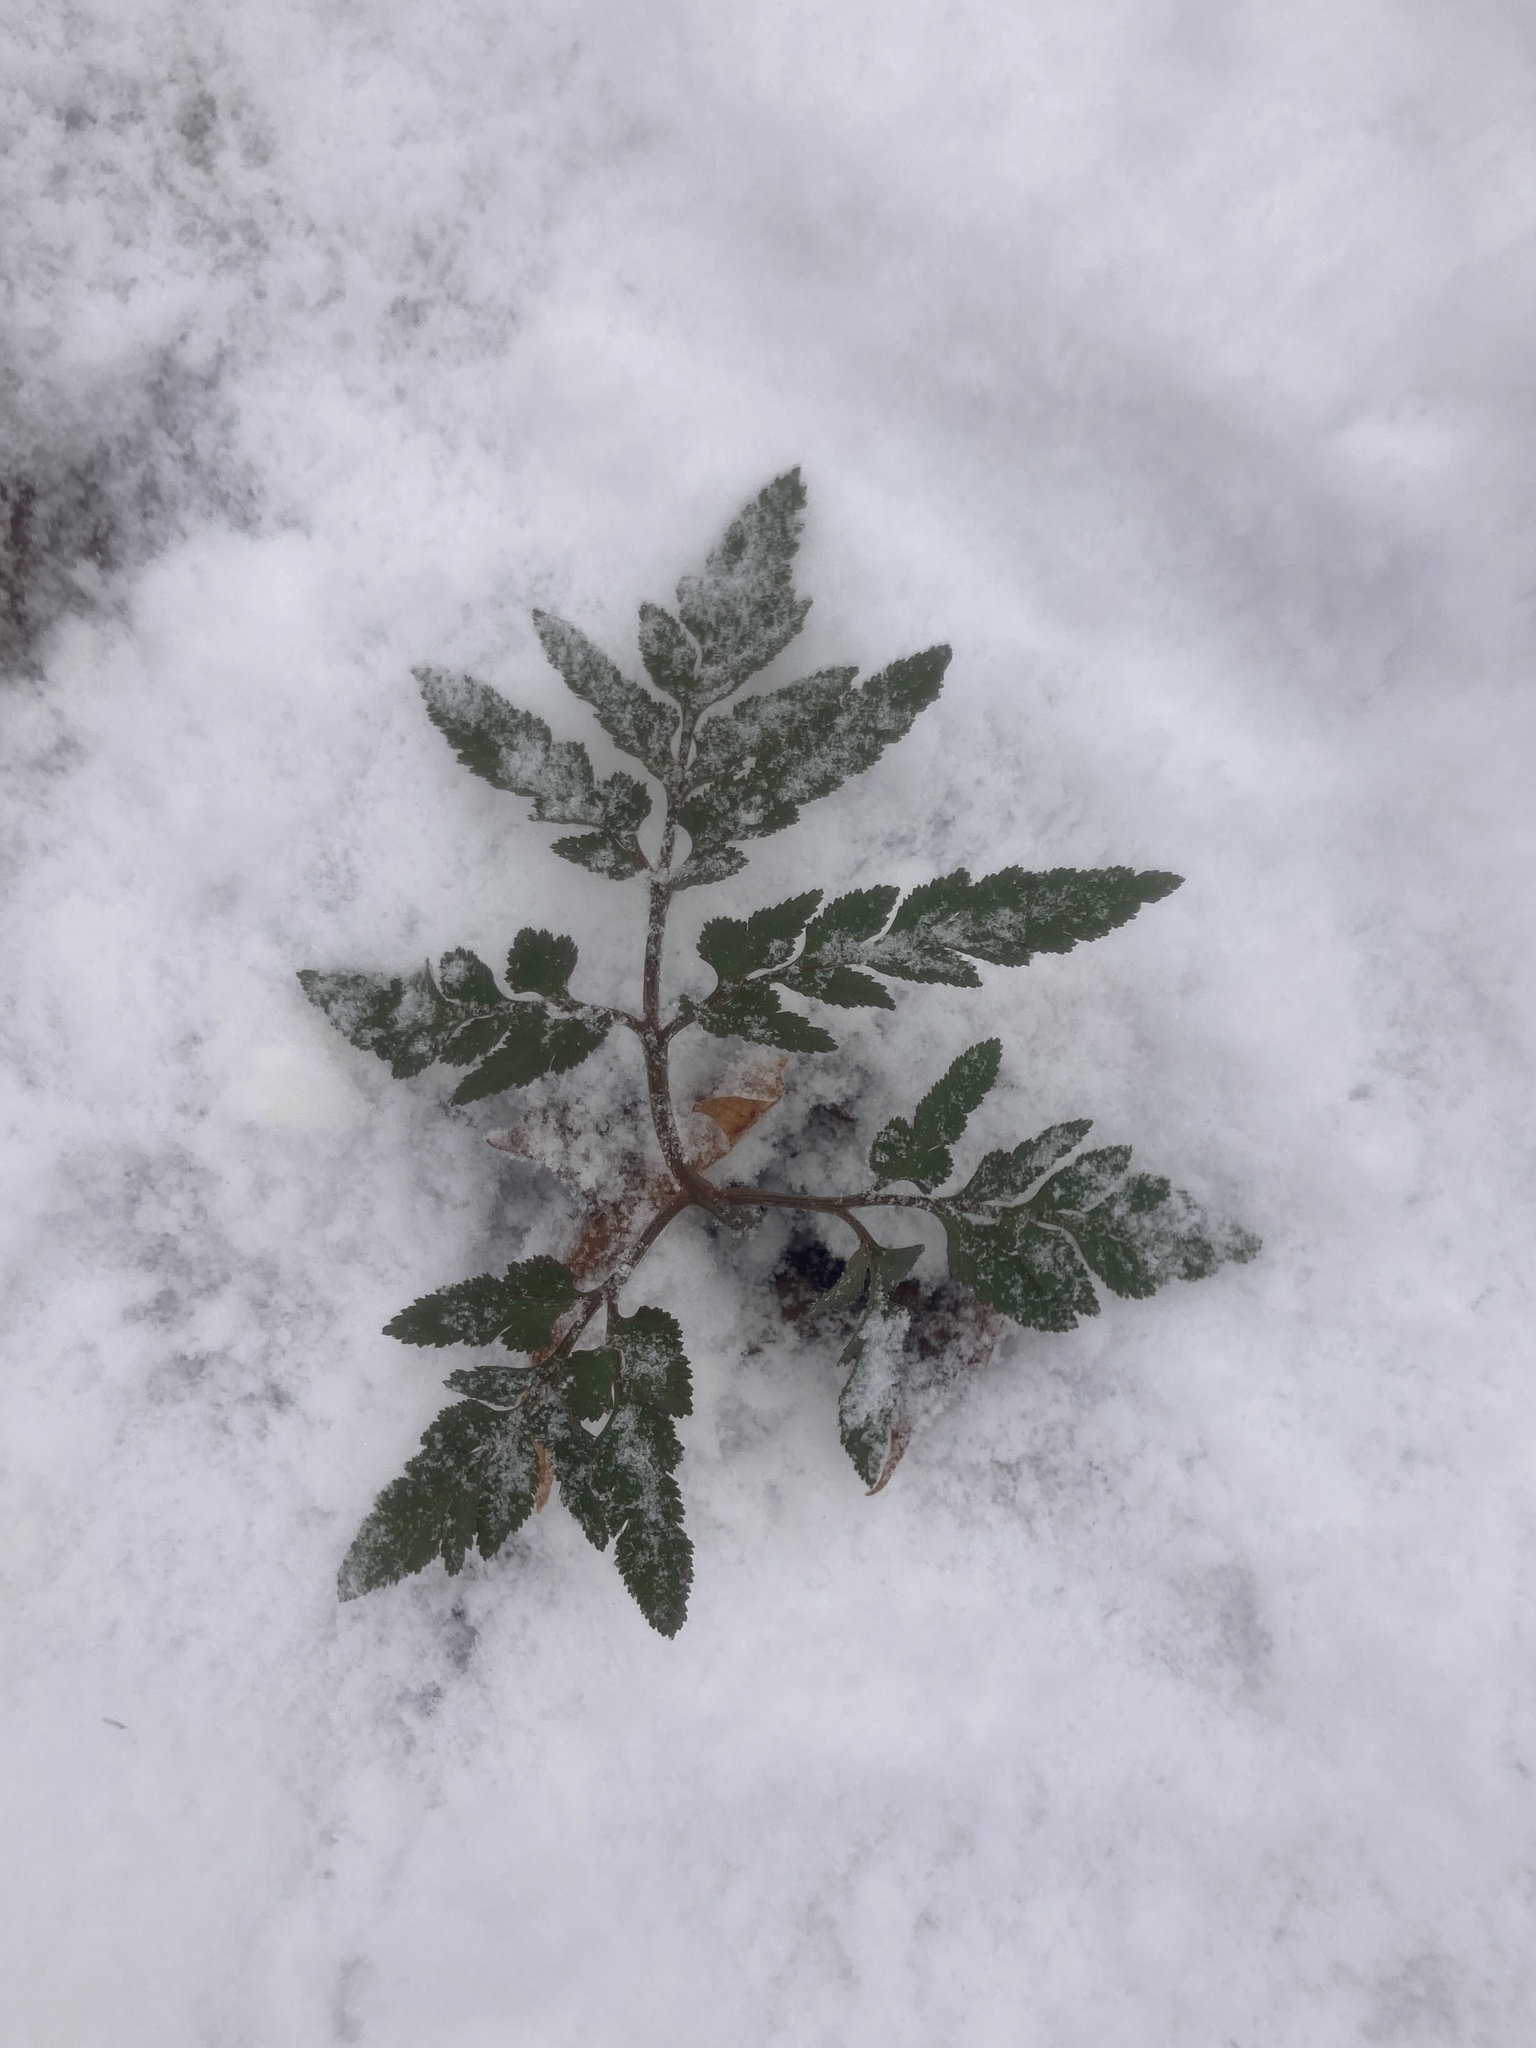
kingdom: Plantae
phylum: Tracheophyta
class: Polypodiopsida
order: Ophioglossales
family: Ophioglossaceae
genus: Sceptridium
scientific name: Sceptridium dissectum
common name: Cut-leaved grapefern
